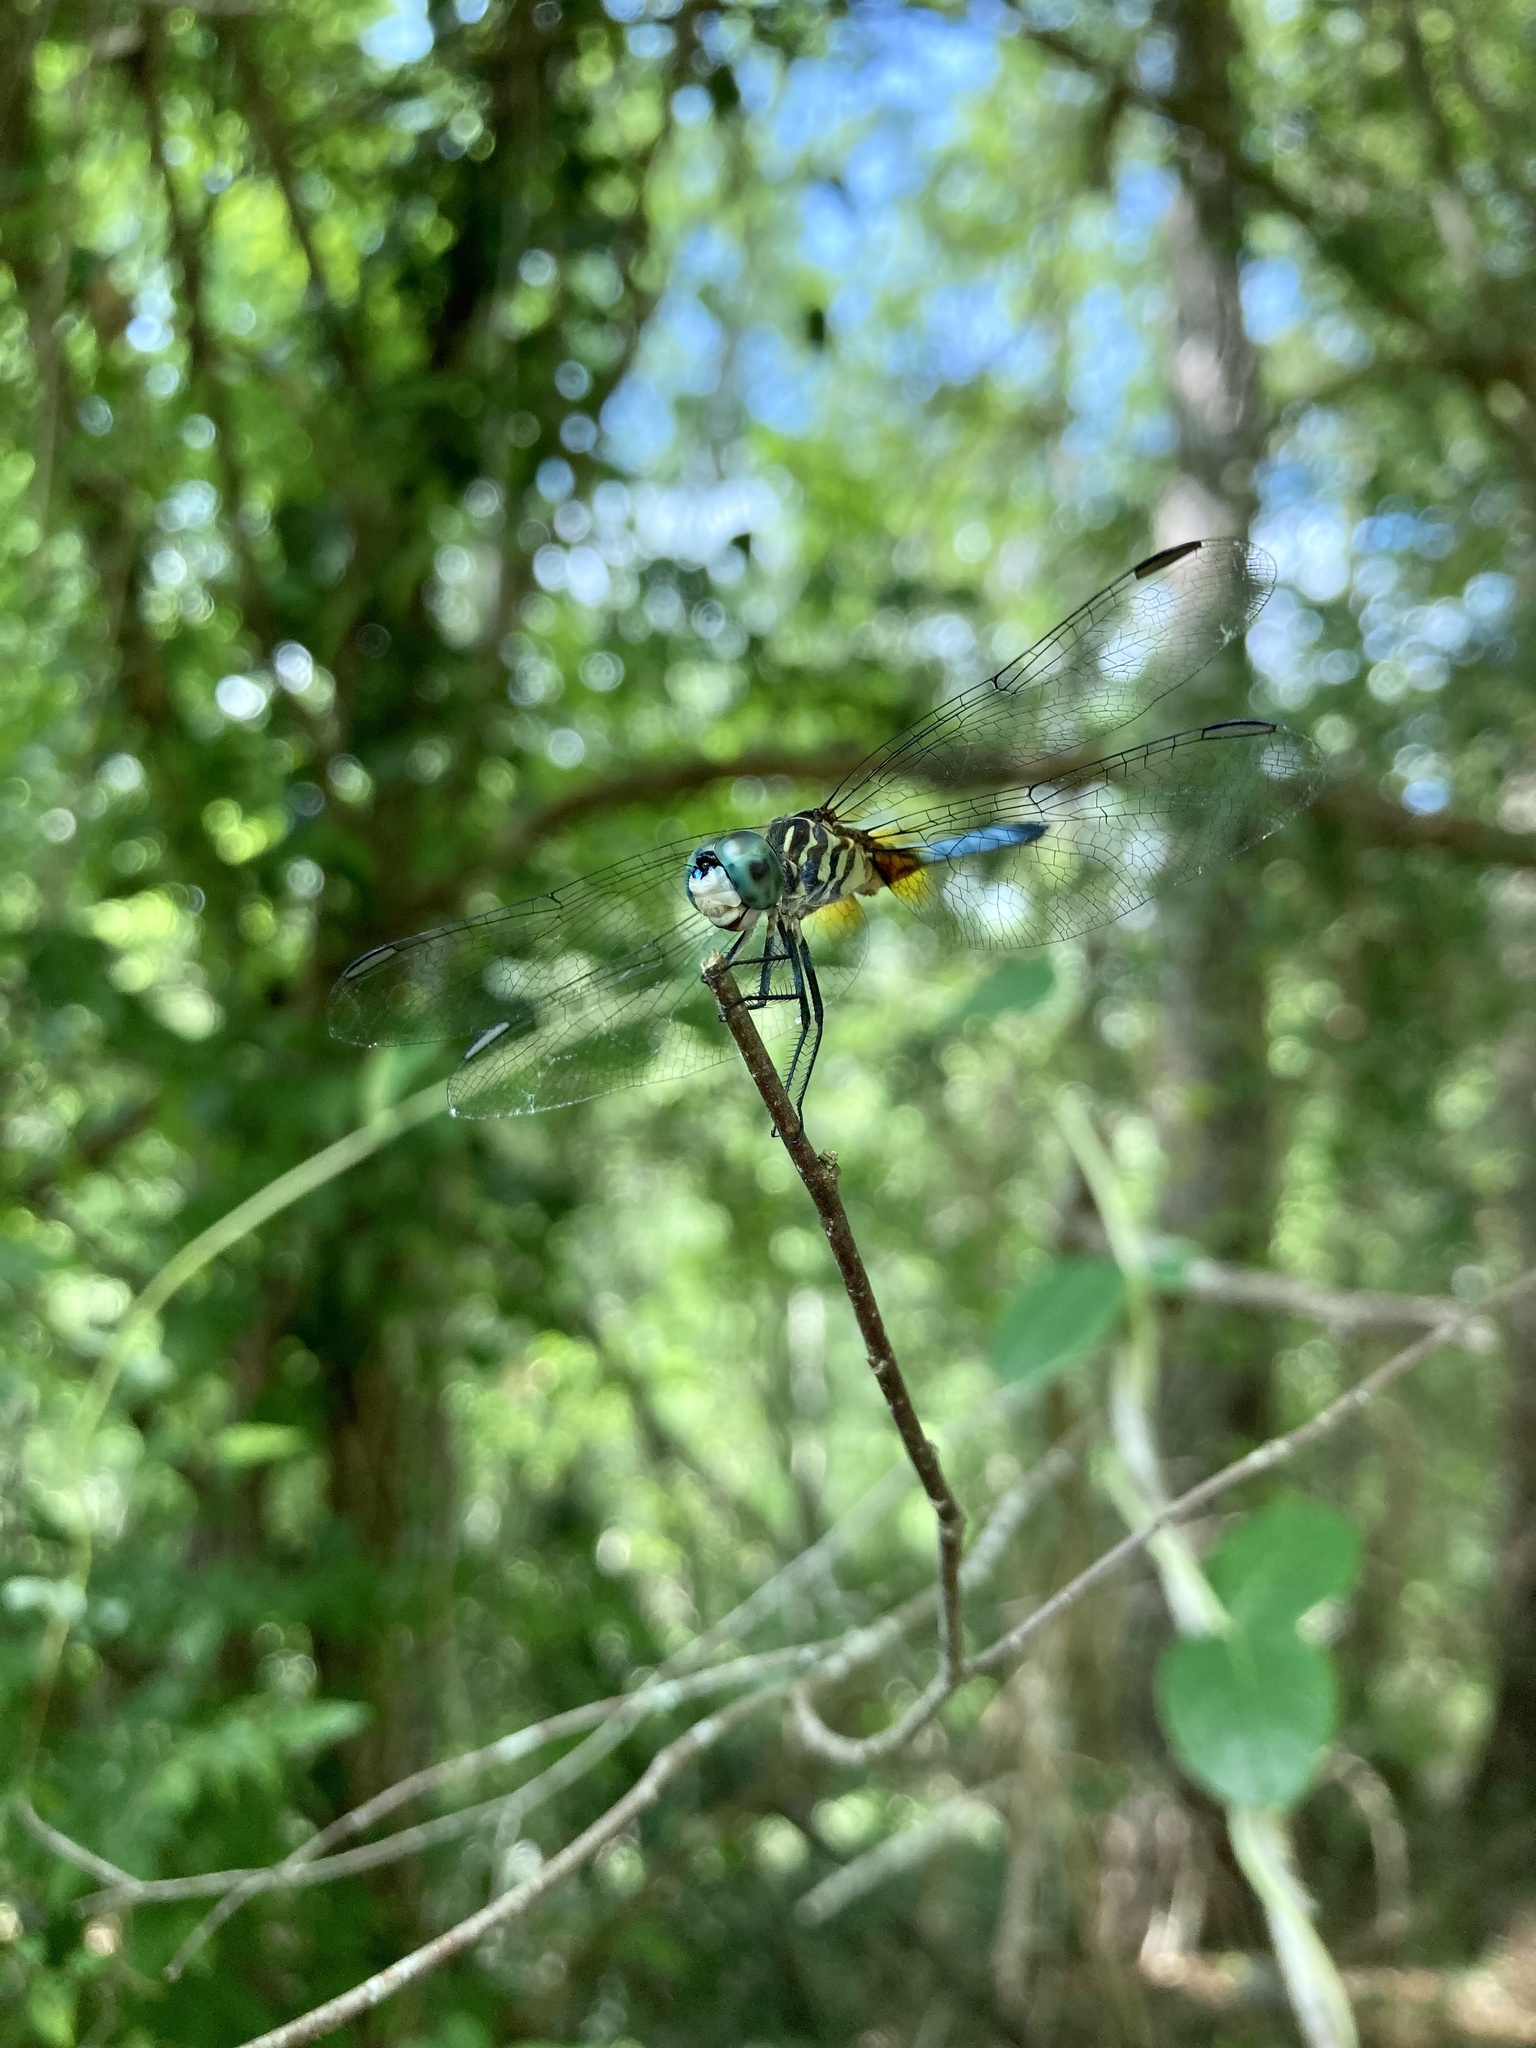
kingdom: Animalia
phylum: Arthropoda
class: Insecta
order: Odonata
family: Libellulidae
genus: Pachydiplax
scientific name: Pachydiplax longipennis
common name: Blue dasher
